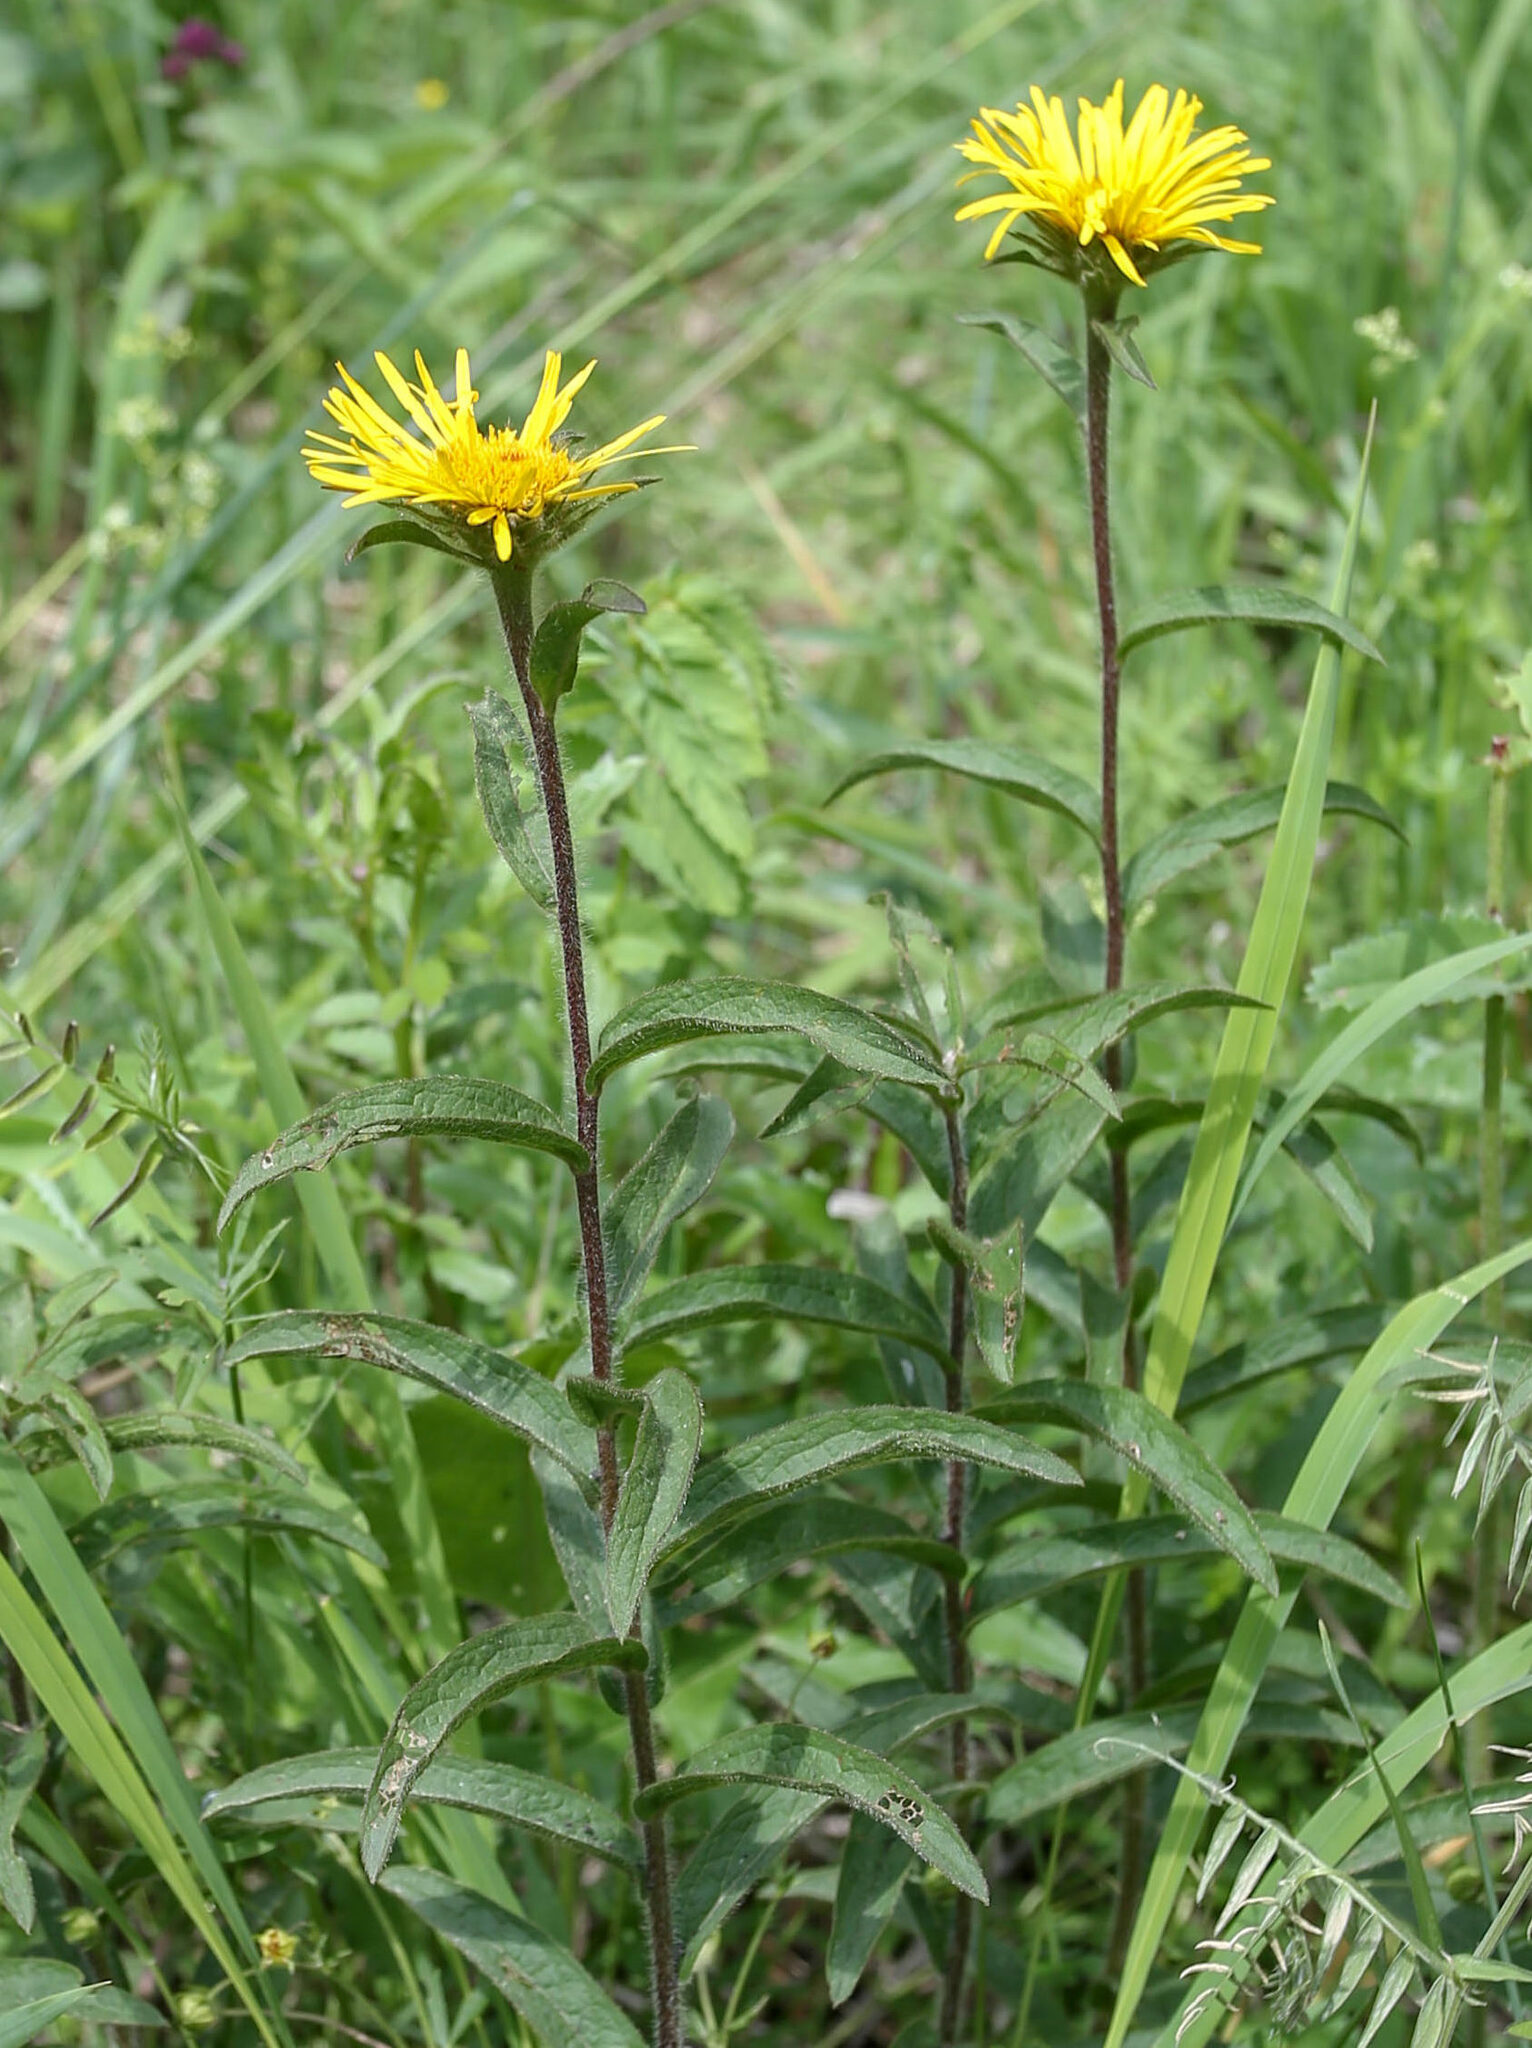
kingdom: Plantae
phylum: Tracheophyta
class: Magnoliopsida
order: Asterales
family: Asteraceae
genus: Pentanema
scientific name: Pentanema hirtum
